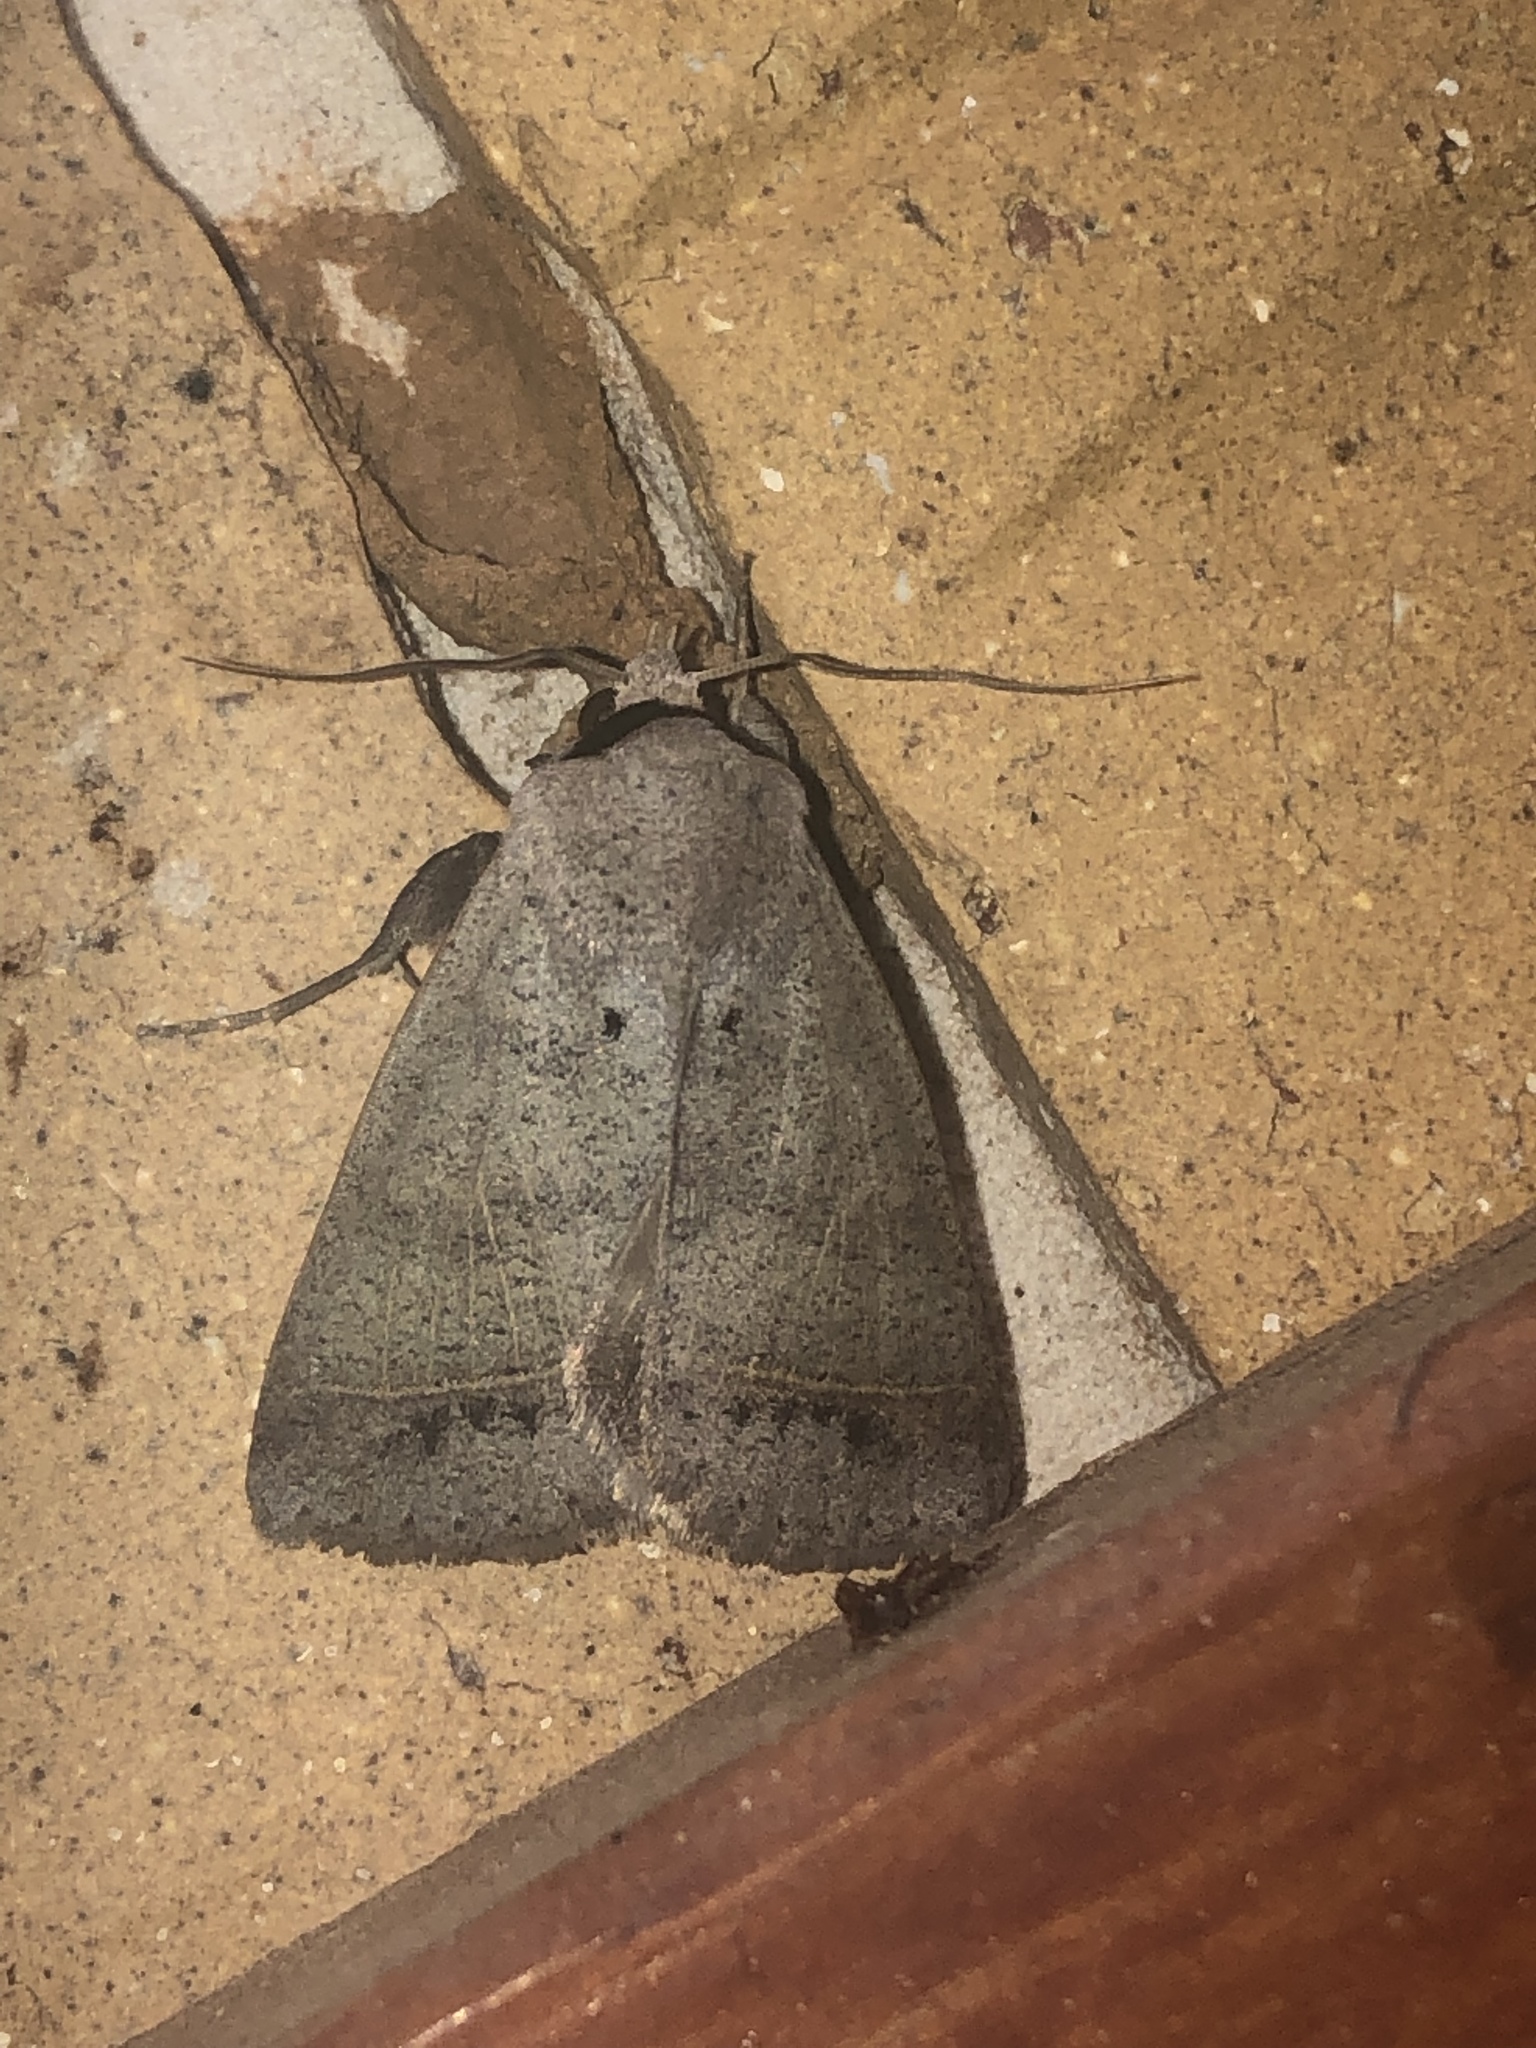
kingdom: Animalia
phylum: Arthropoda
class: Insecta
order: Lepidoptera
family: Erebidae
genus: Pantydia
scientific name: Pantydia capistrata
